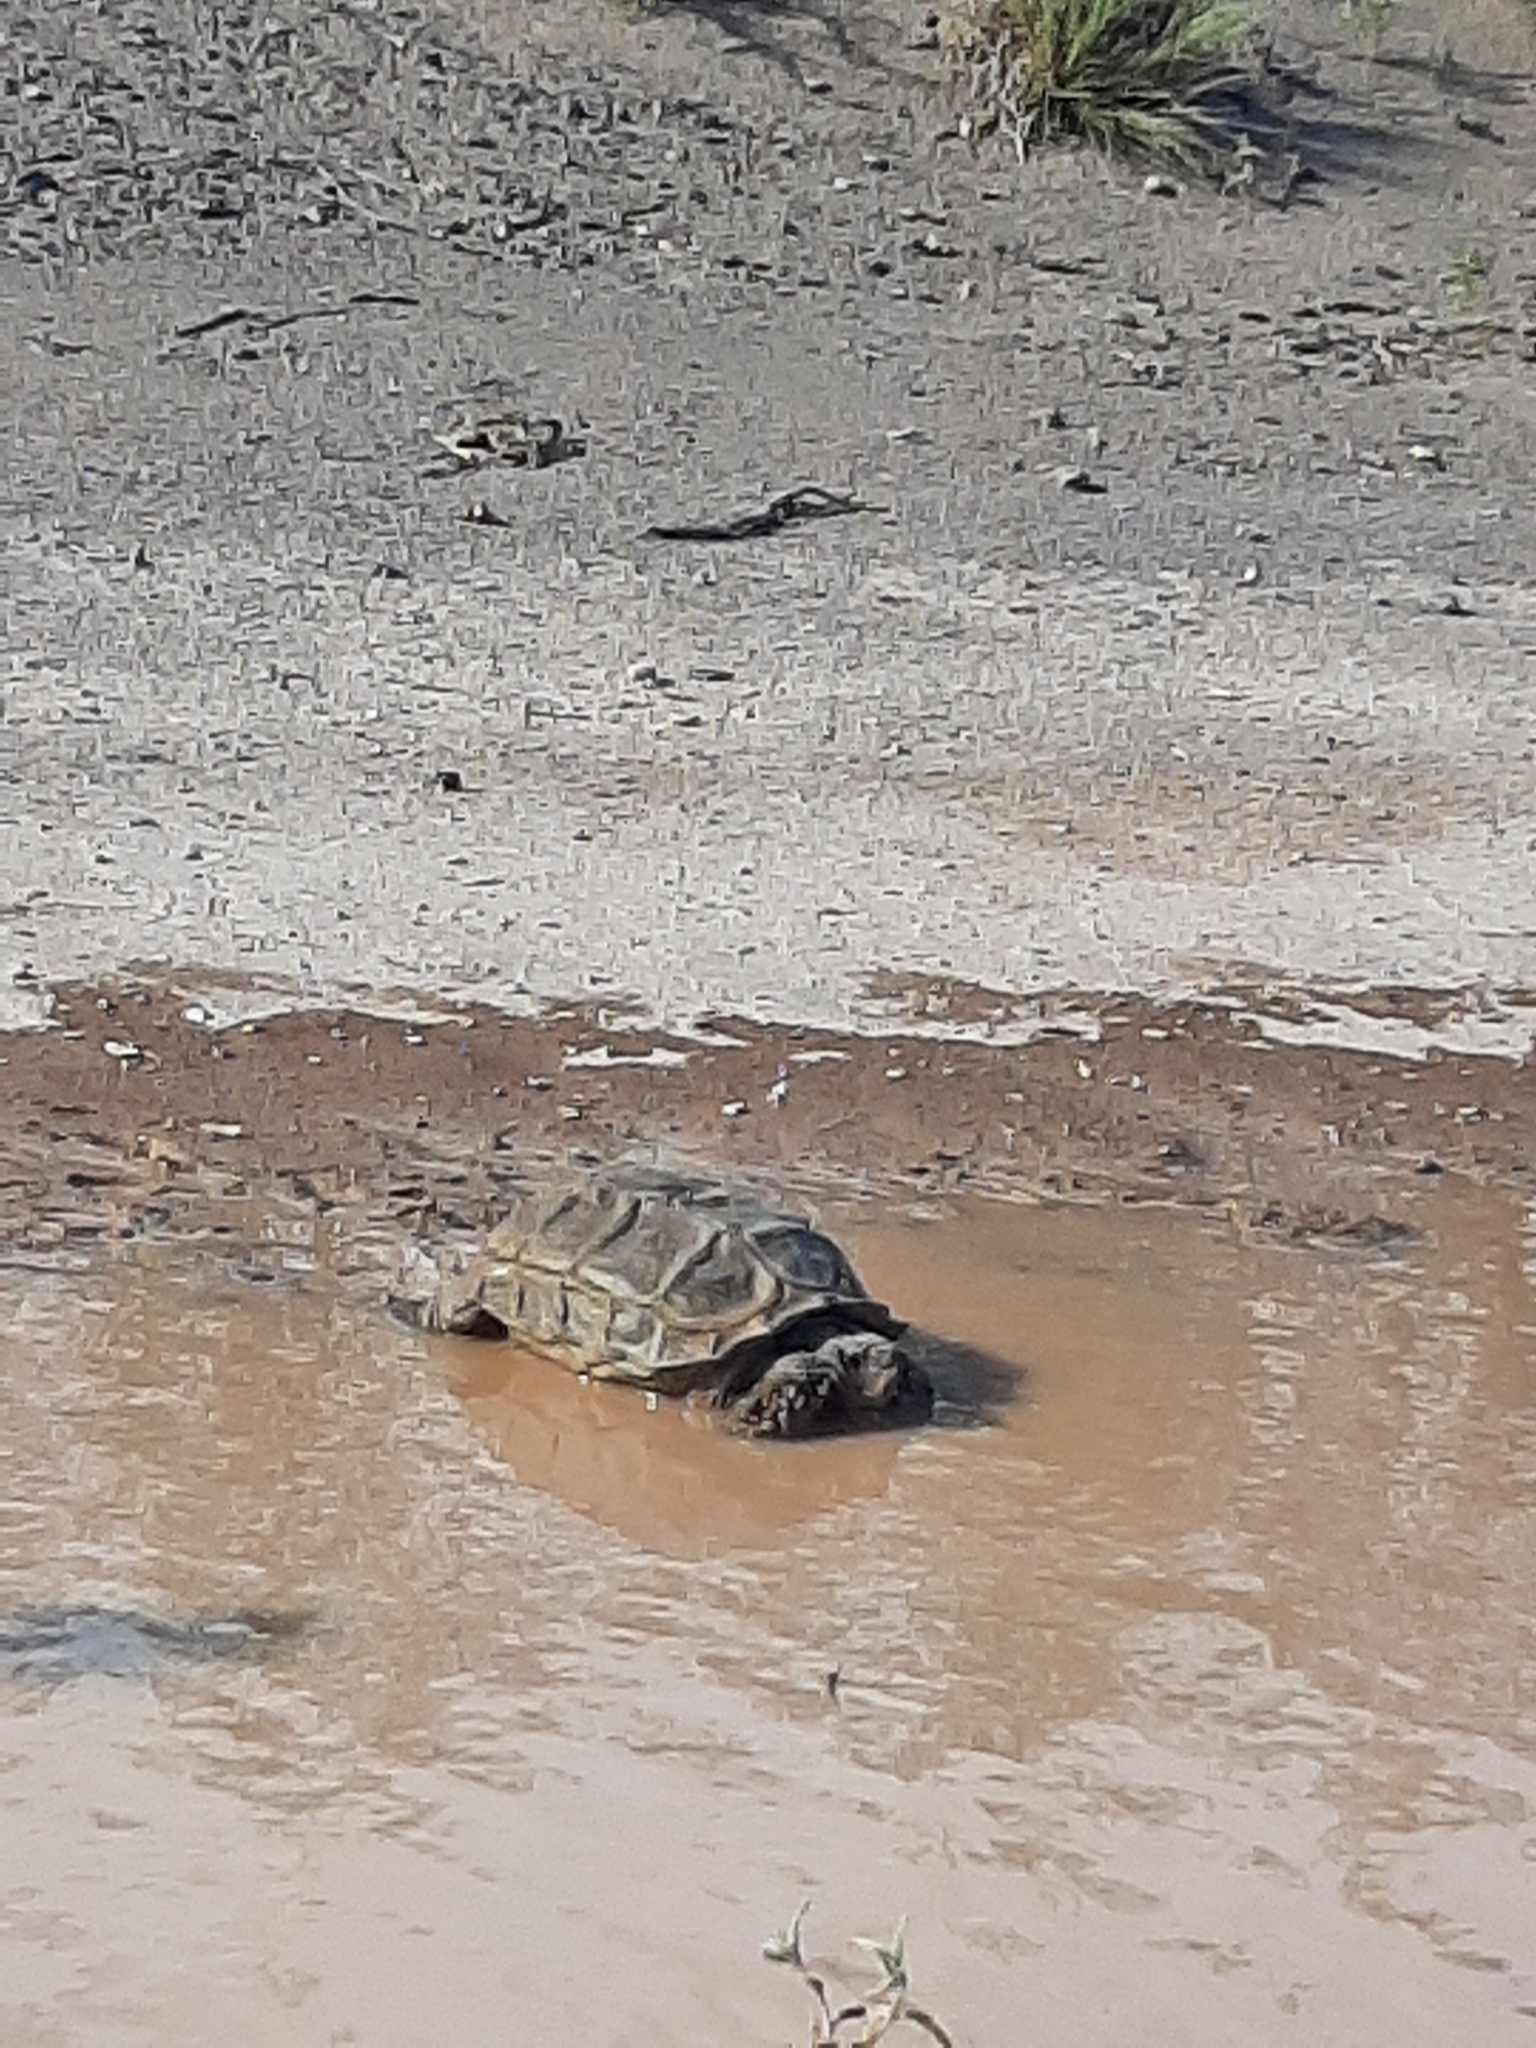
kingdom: Animalia
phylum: Chordata
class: Testudines
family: Testudinidae
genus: Chelonoidis
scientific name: Chelonoidis chilensis
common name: Chaco tortoise
